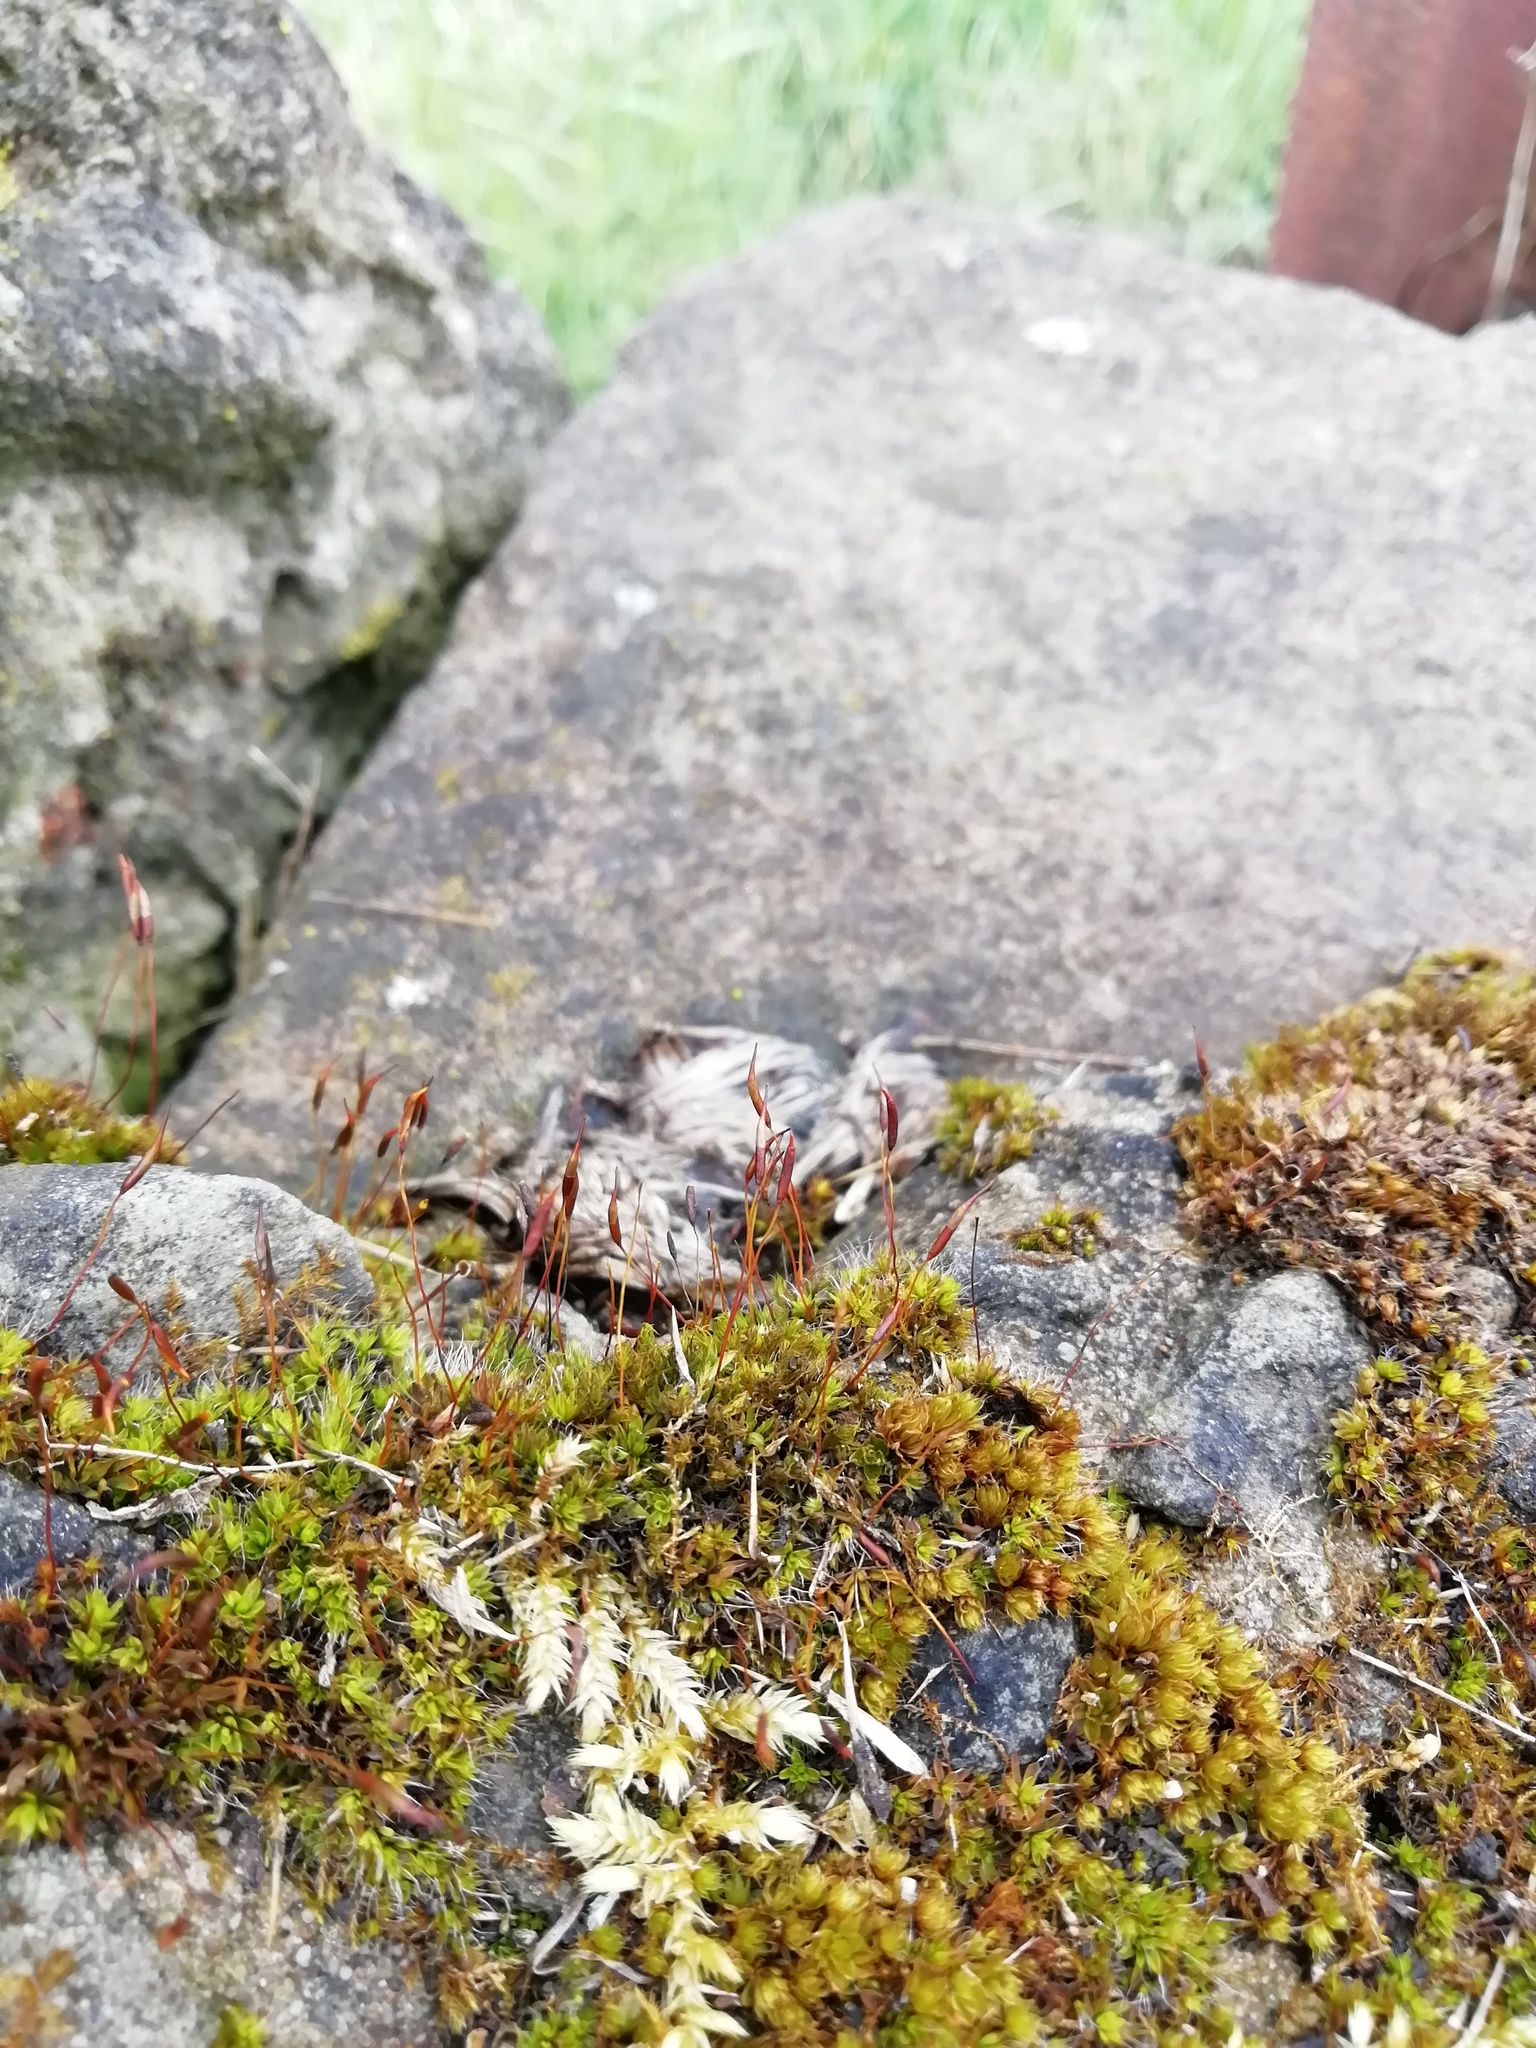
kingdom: Plantae
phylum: Bryophyta
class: Bryopsida
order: Pottiales
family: Pottiaceae
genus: Tortula
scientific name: Tortula muralis
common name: Wall screw-moss
